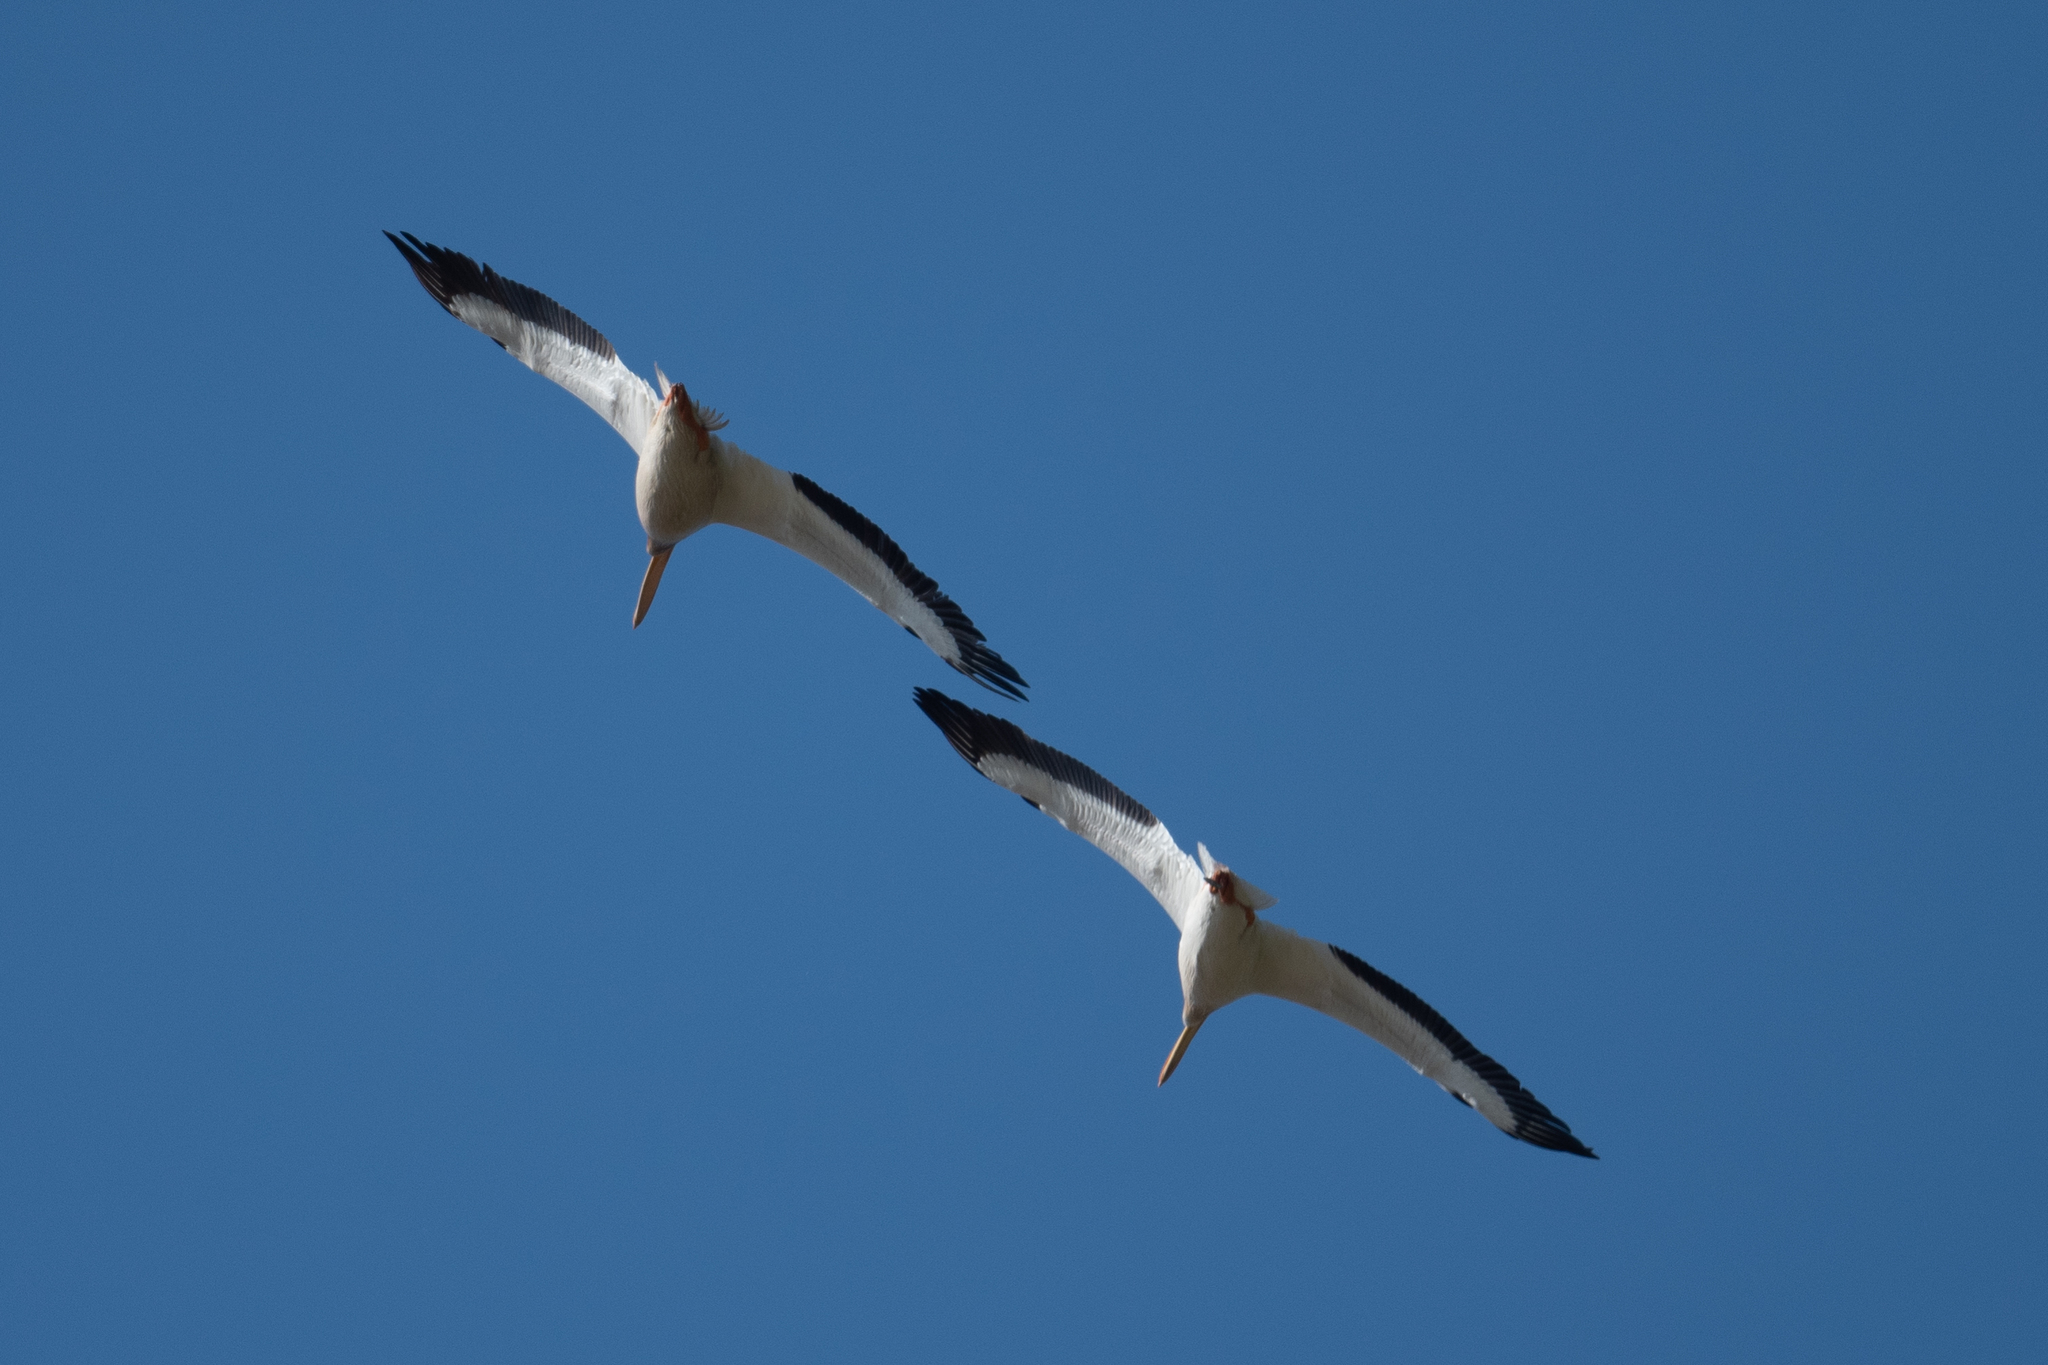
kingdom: Animalia
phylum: Chordata
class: Aves
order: Pelecaniformes
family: Pelecanidae
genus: Pelecanus
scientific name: Pelecanus erythrorhynchos
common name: American white pelican
